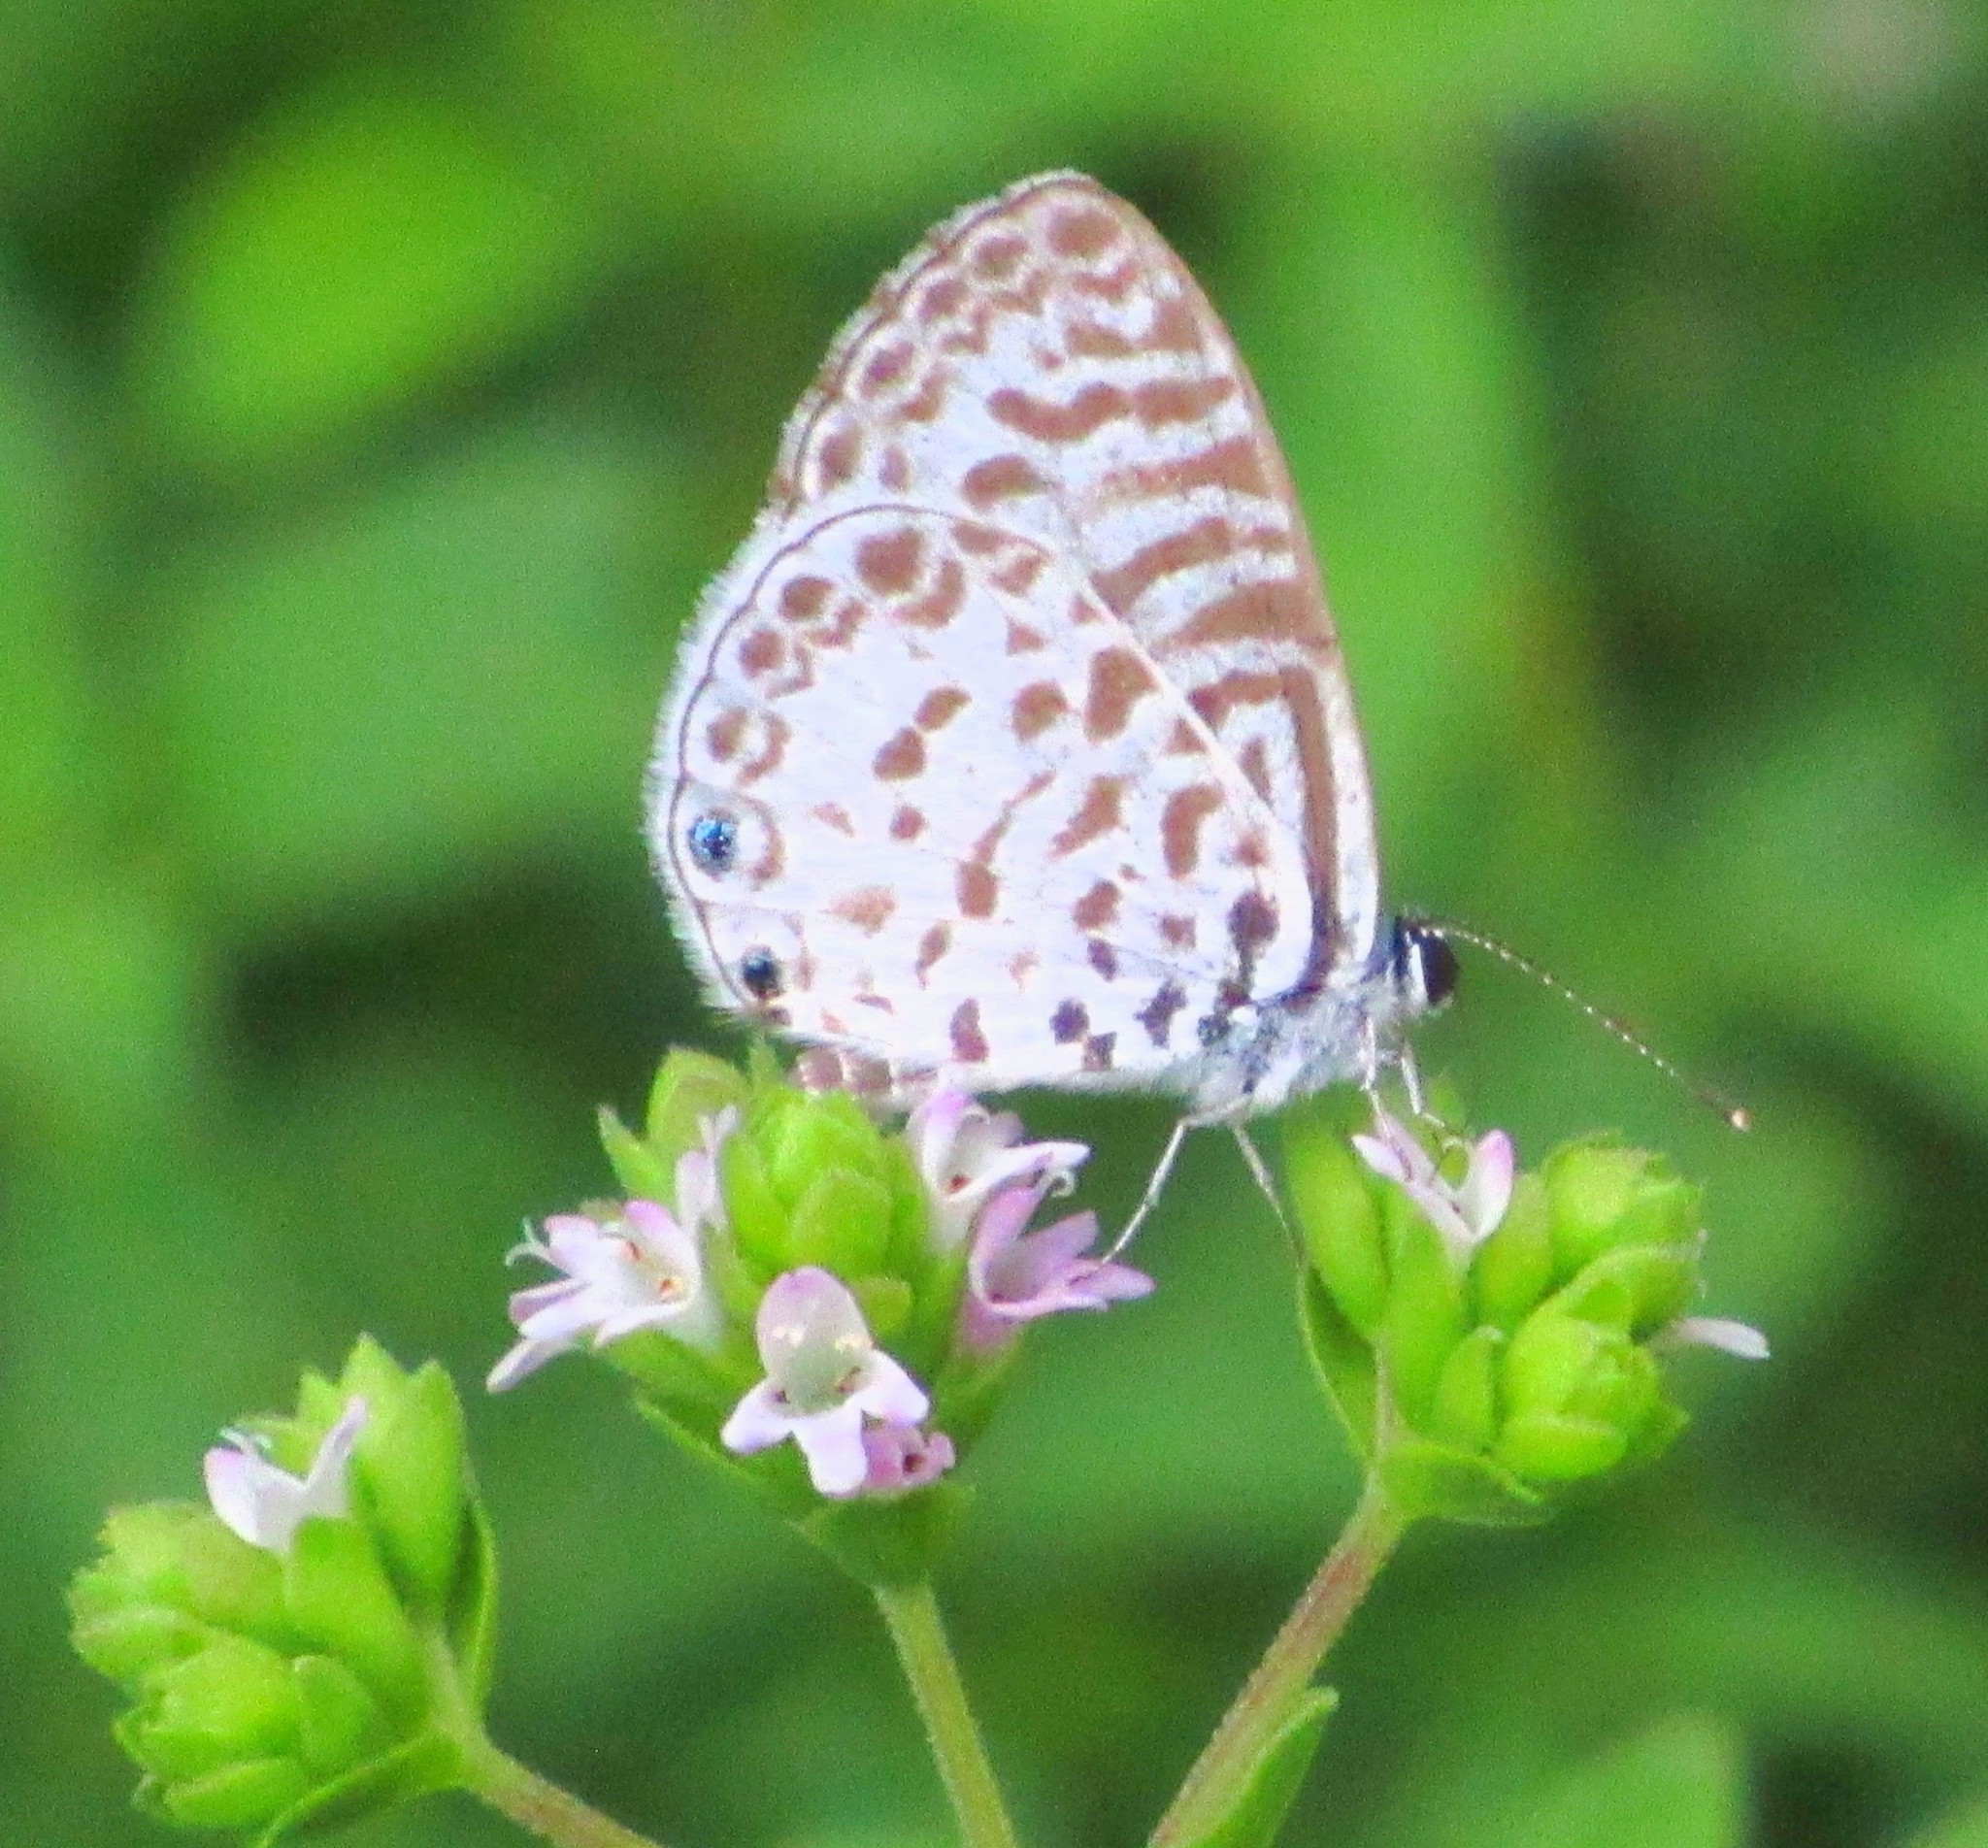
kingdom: Animalia
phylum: Arthropoda
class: Insecta
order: Lepidoptera
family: Lycaenidae
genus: Leptotes
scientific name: Leptotes cassius
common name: Cassius blue
